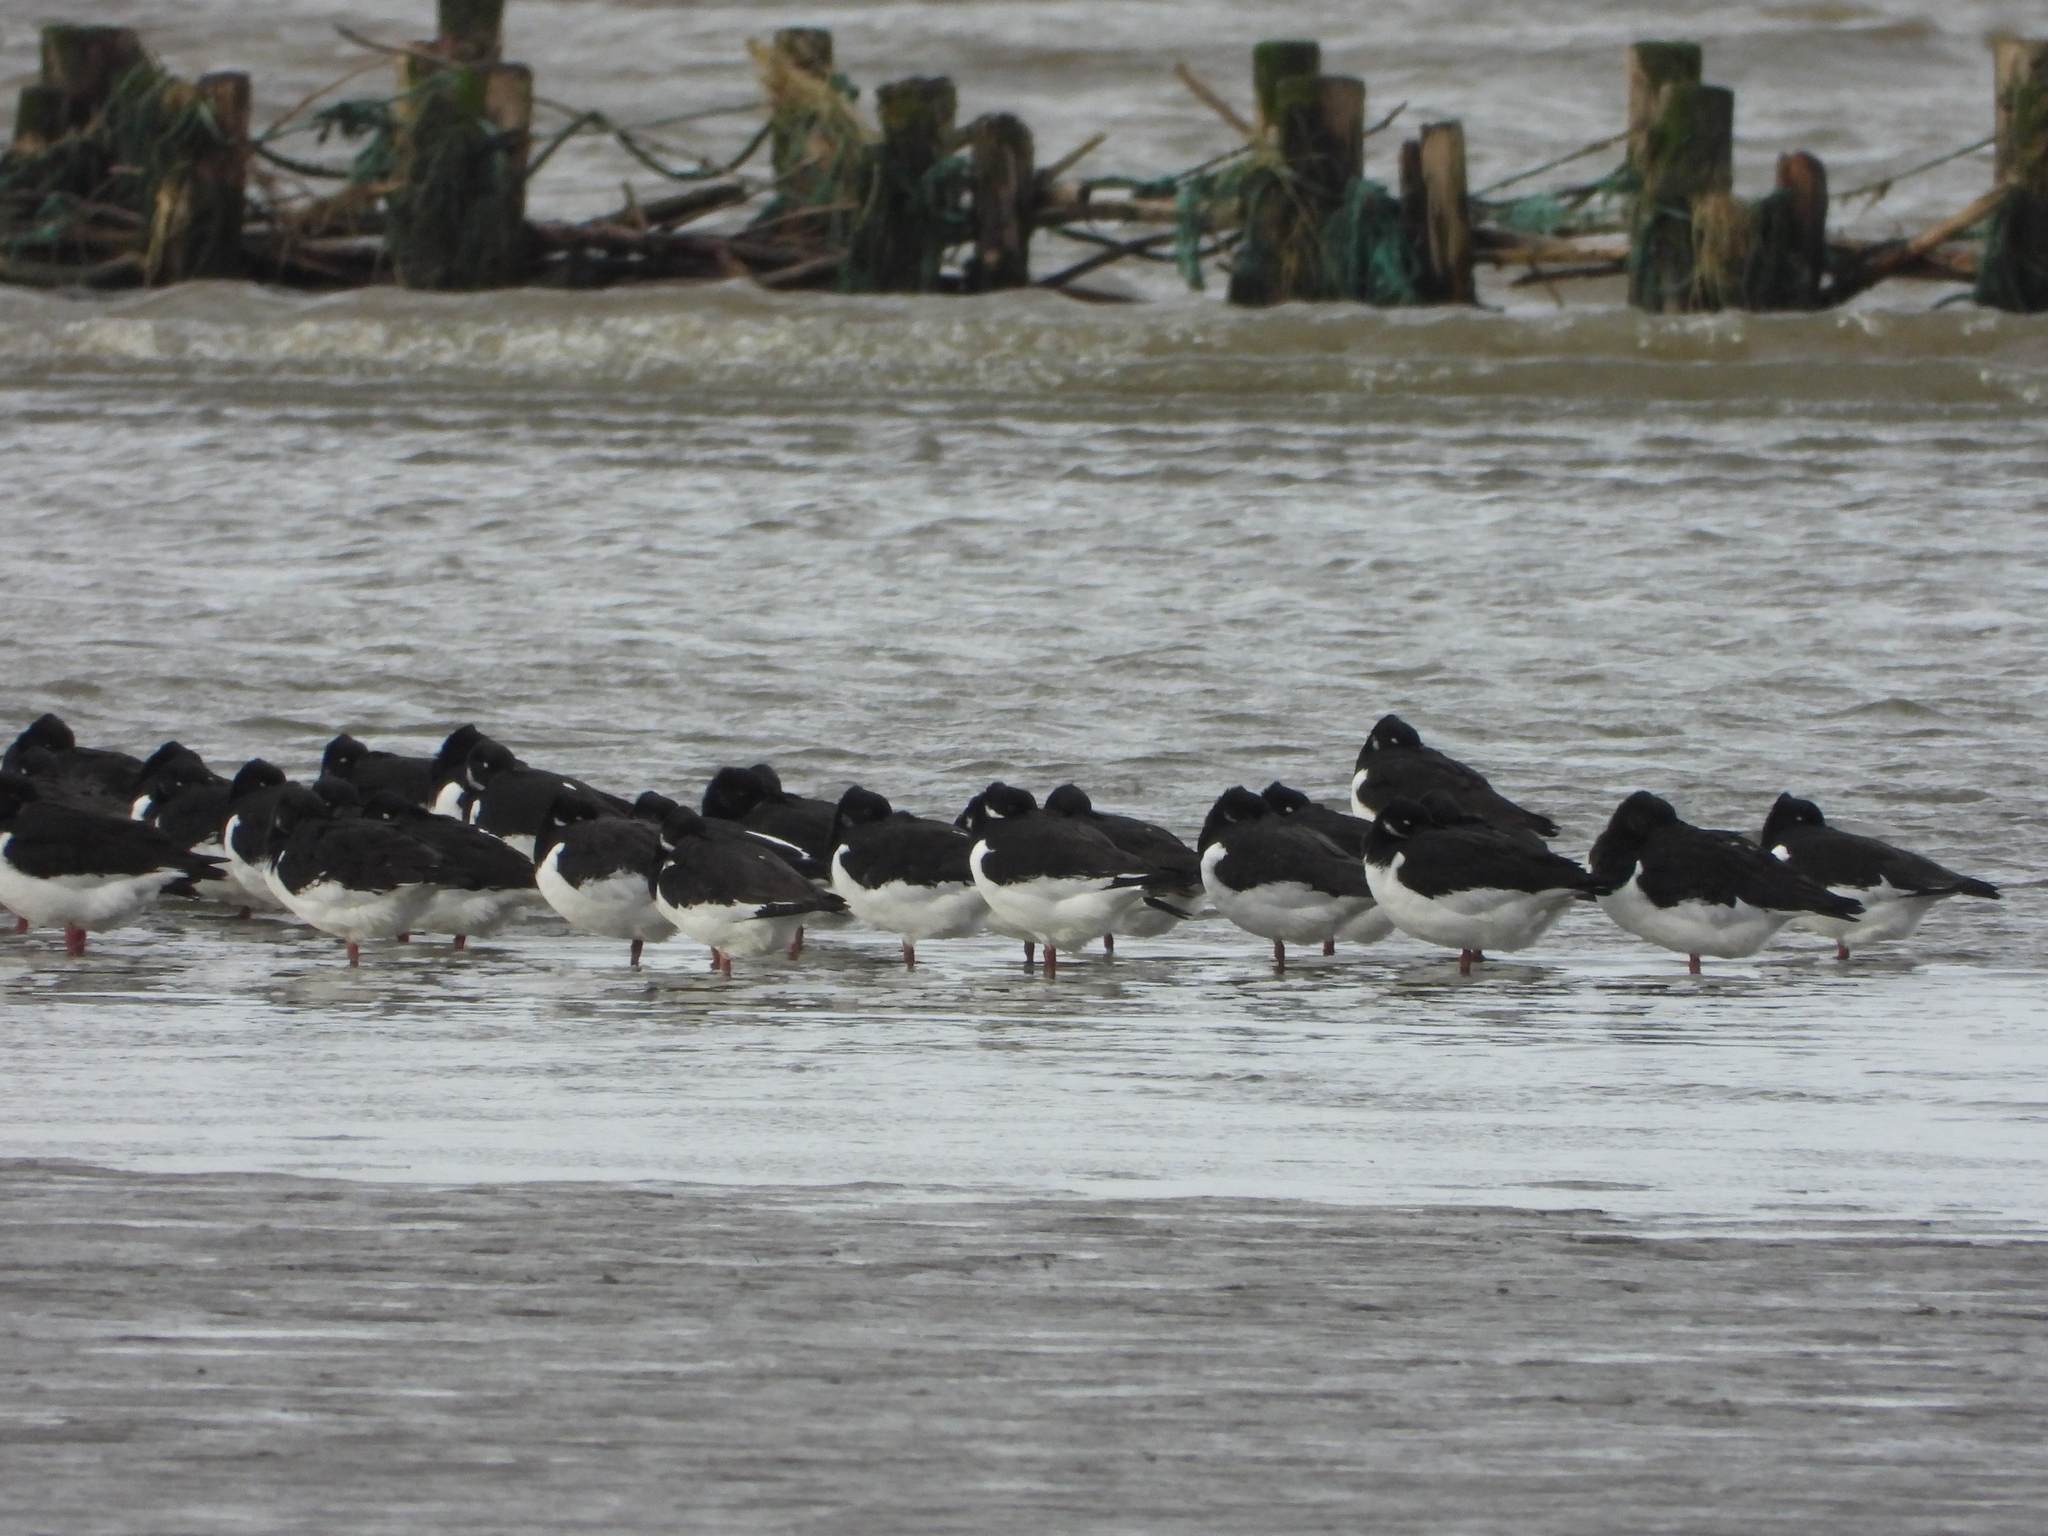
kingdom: Animalia
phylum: Chordata
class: Aves
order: Charadriiformes
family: Haematopodidae
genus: Haematopus
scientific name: Haematopus ostralegus
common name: Eurasian oystercatcher
